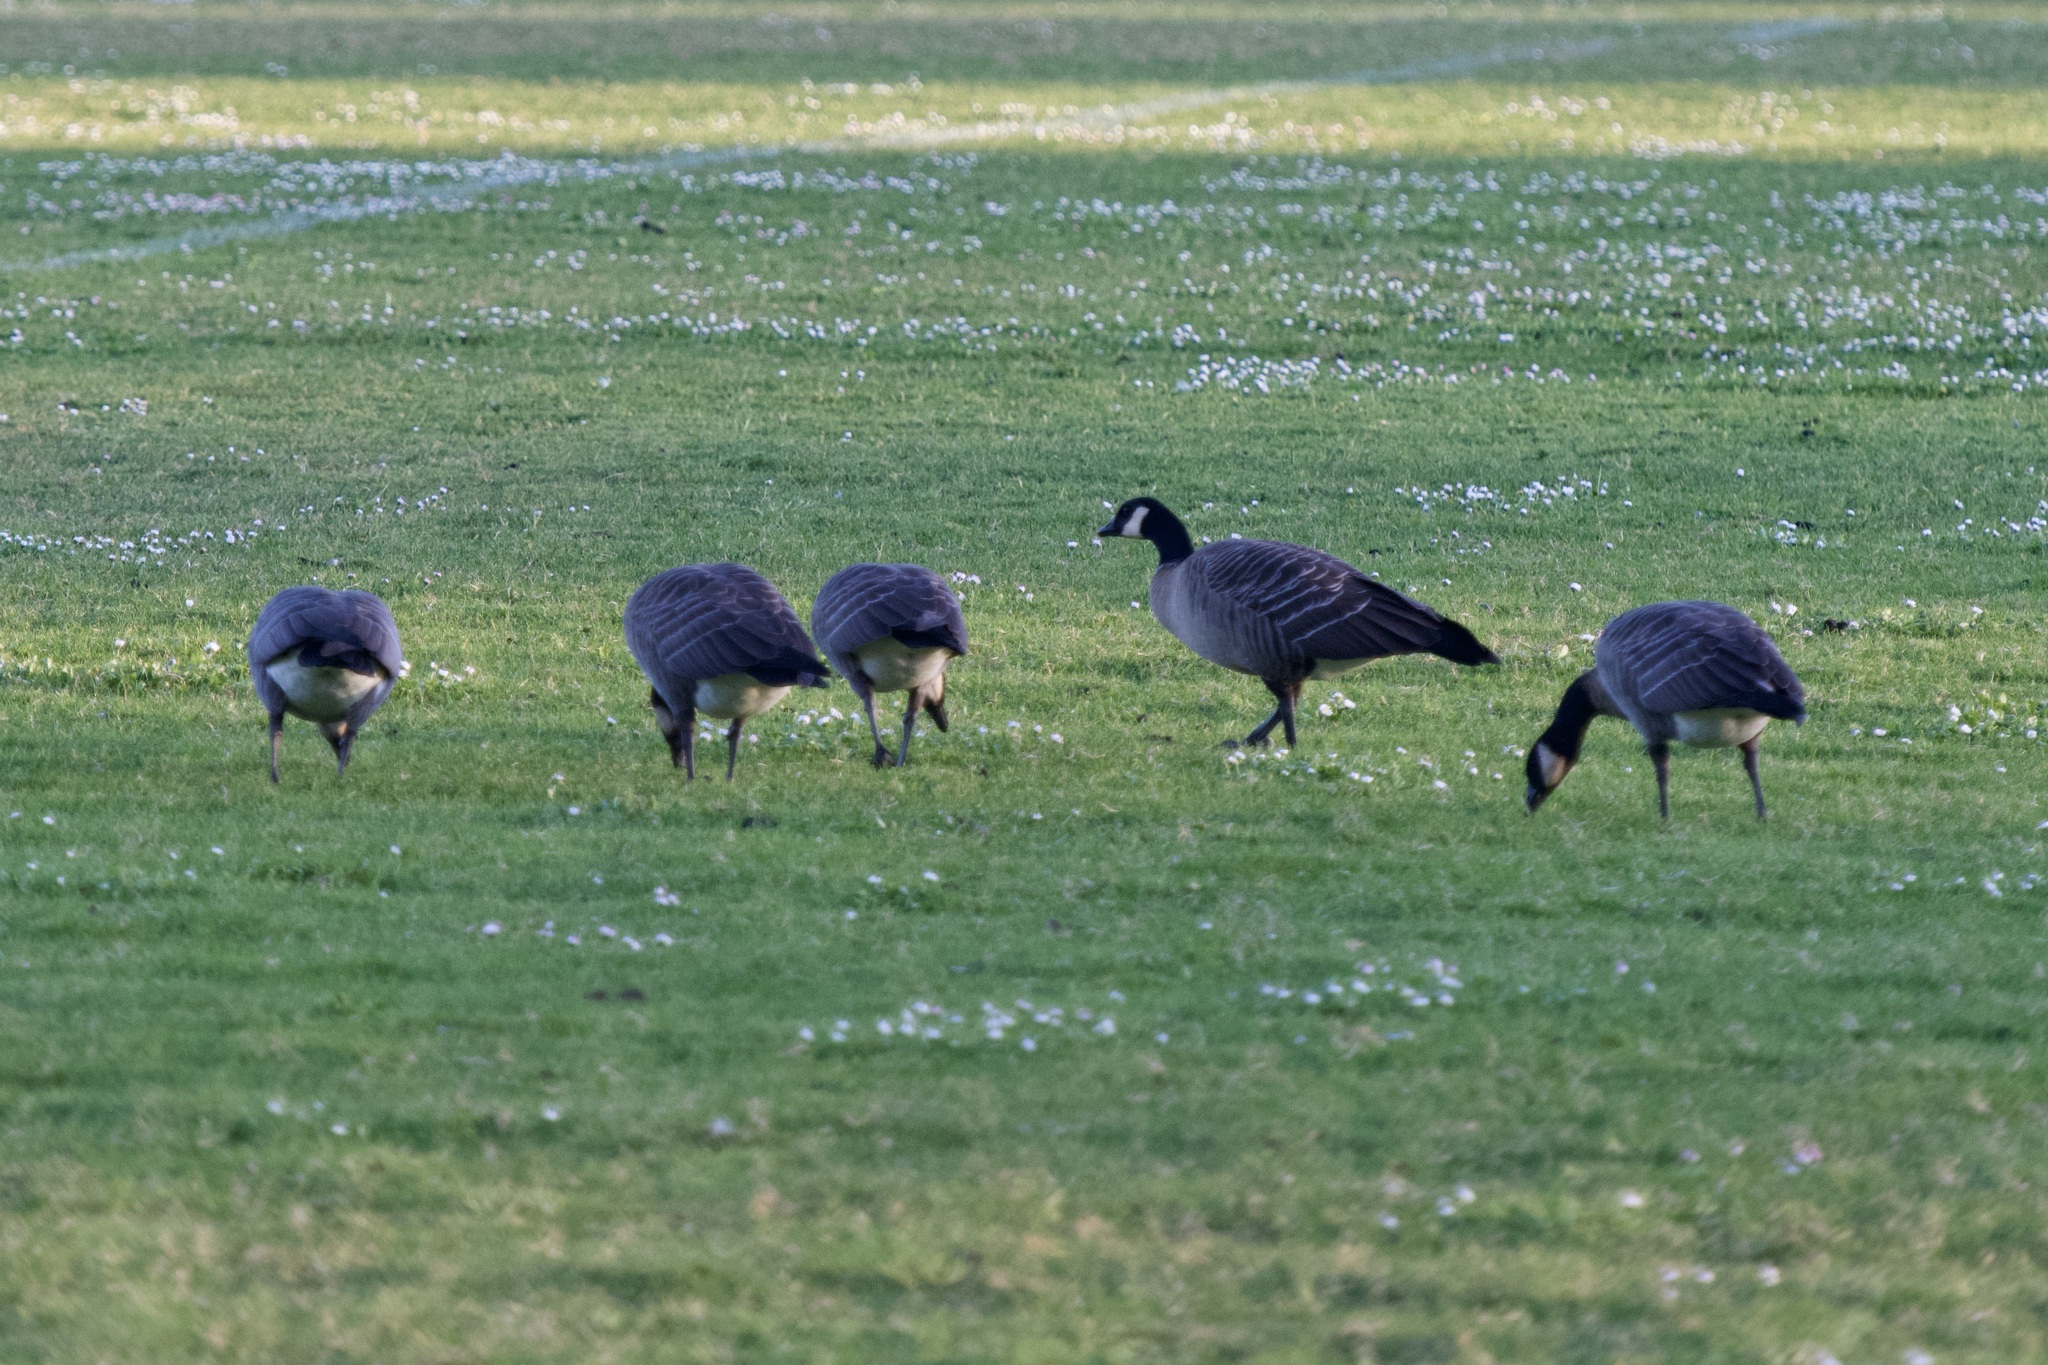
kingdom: Animalia
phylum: Chordata
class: Aves
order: Anseriformes
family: Anatidae
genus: Branta
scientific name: Branta hutchinsii
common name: Cackling goose
